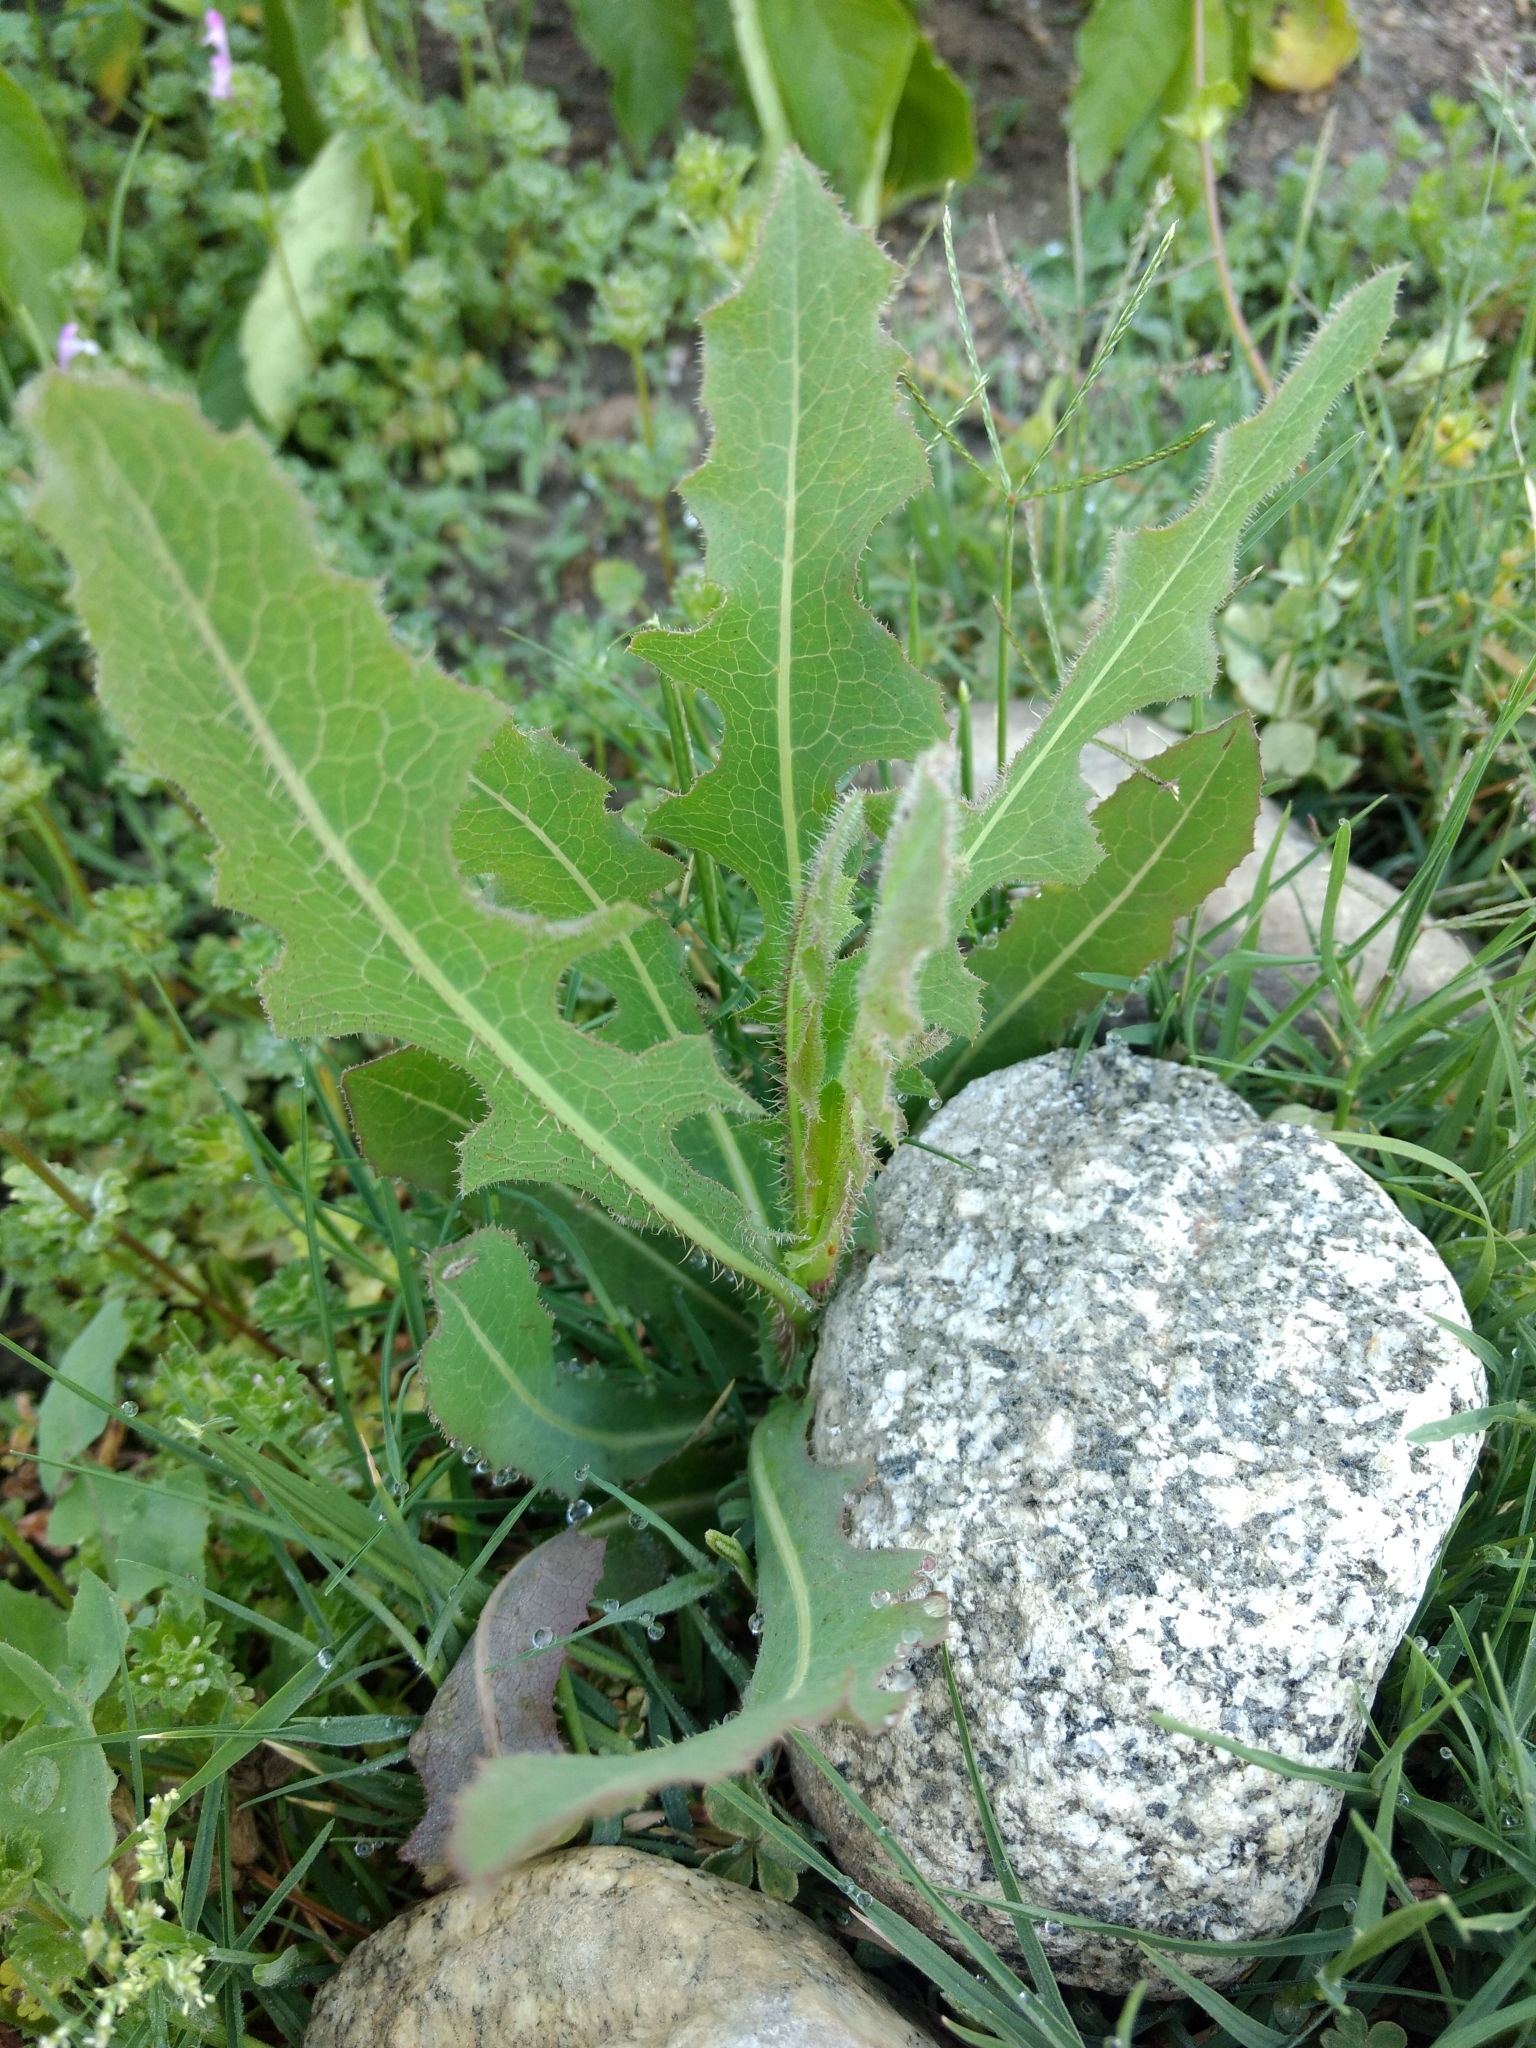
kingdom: Plantae
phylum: Tracheophyta
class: Magnoliopsida
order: Asterales
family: Asteraceae
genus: Lactuca
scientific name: Lactuca serriola
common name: Prickly lettuce
